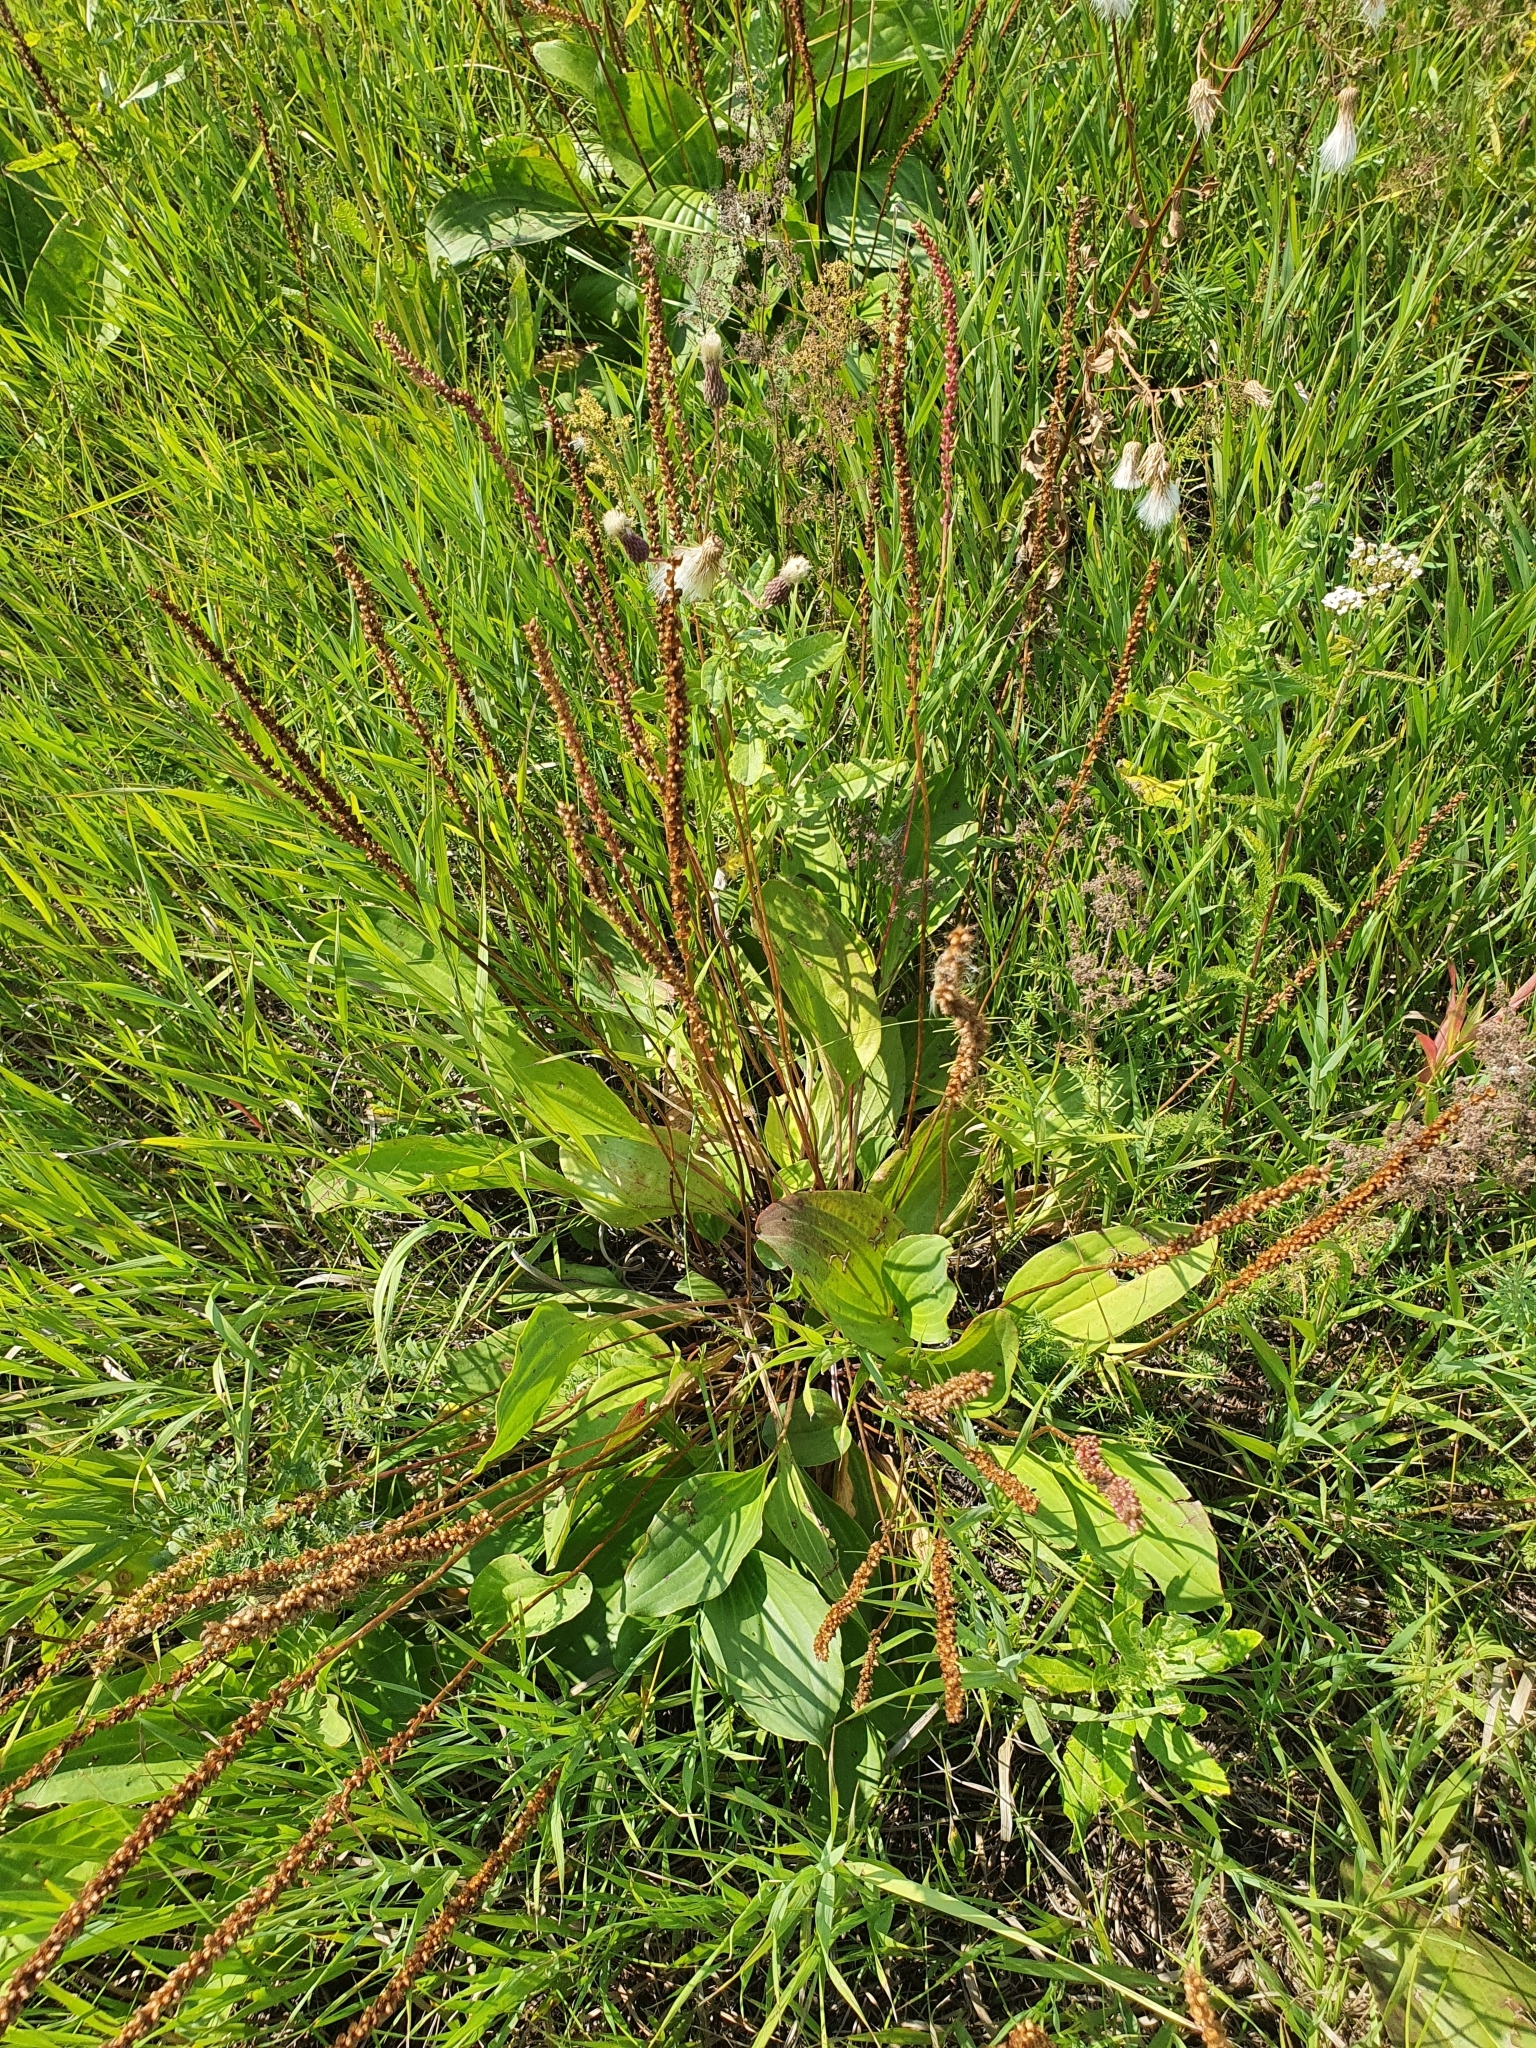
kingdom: Plantae
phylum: Tracheophyta
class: Magnoliopsida
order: Lamiales
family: Plantaginaceae
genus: Plantago
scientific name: Plantago cornuti
